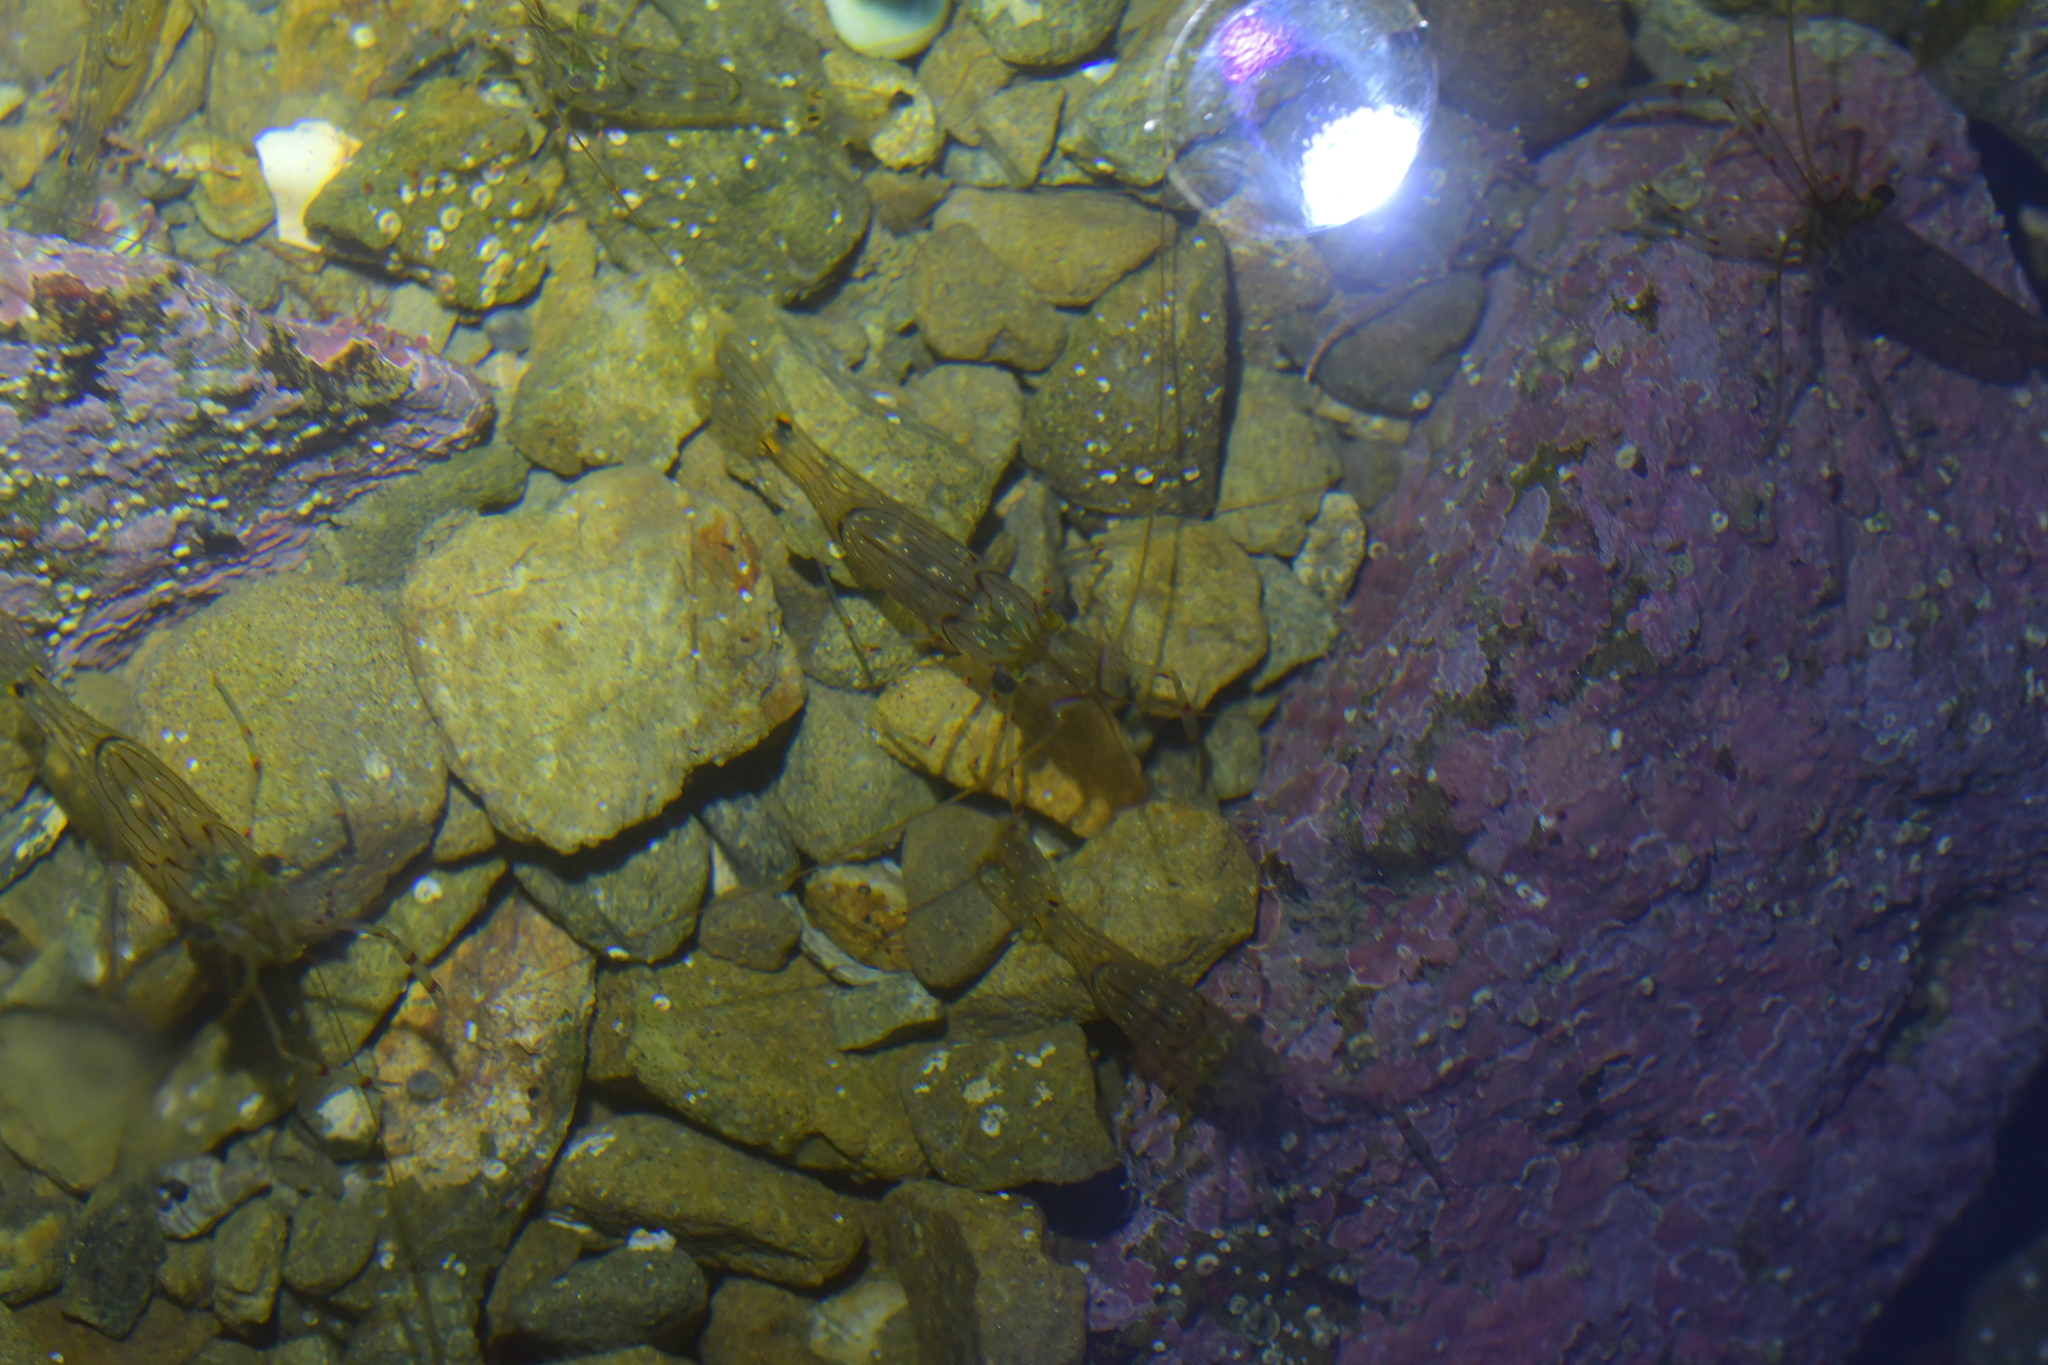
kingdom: Animalia
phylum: Arthropoda
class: Malacostraca
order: Decapoda
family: Palaemonidae
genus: Palaemon
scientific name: Palaemon affinis
